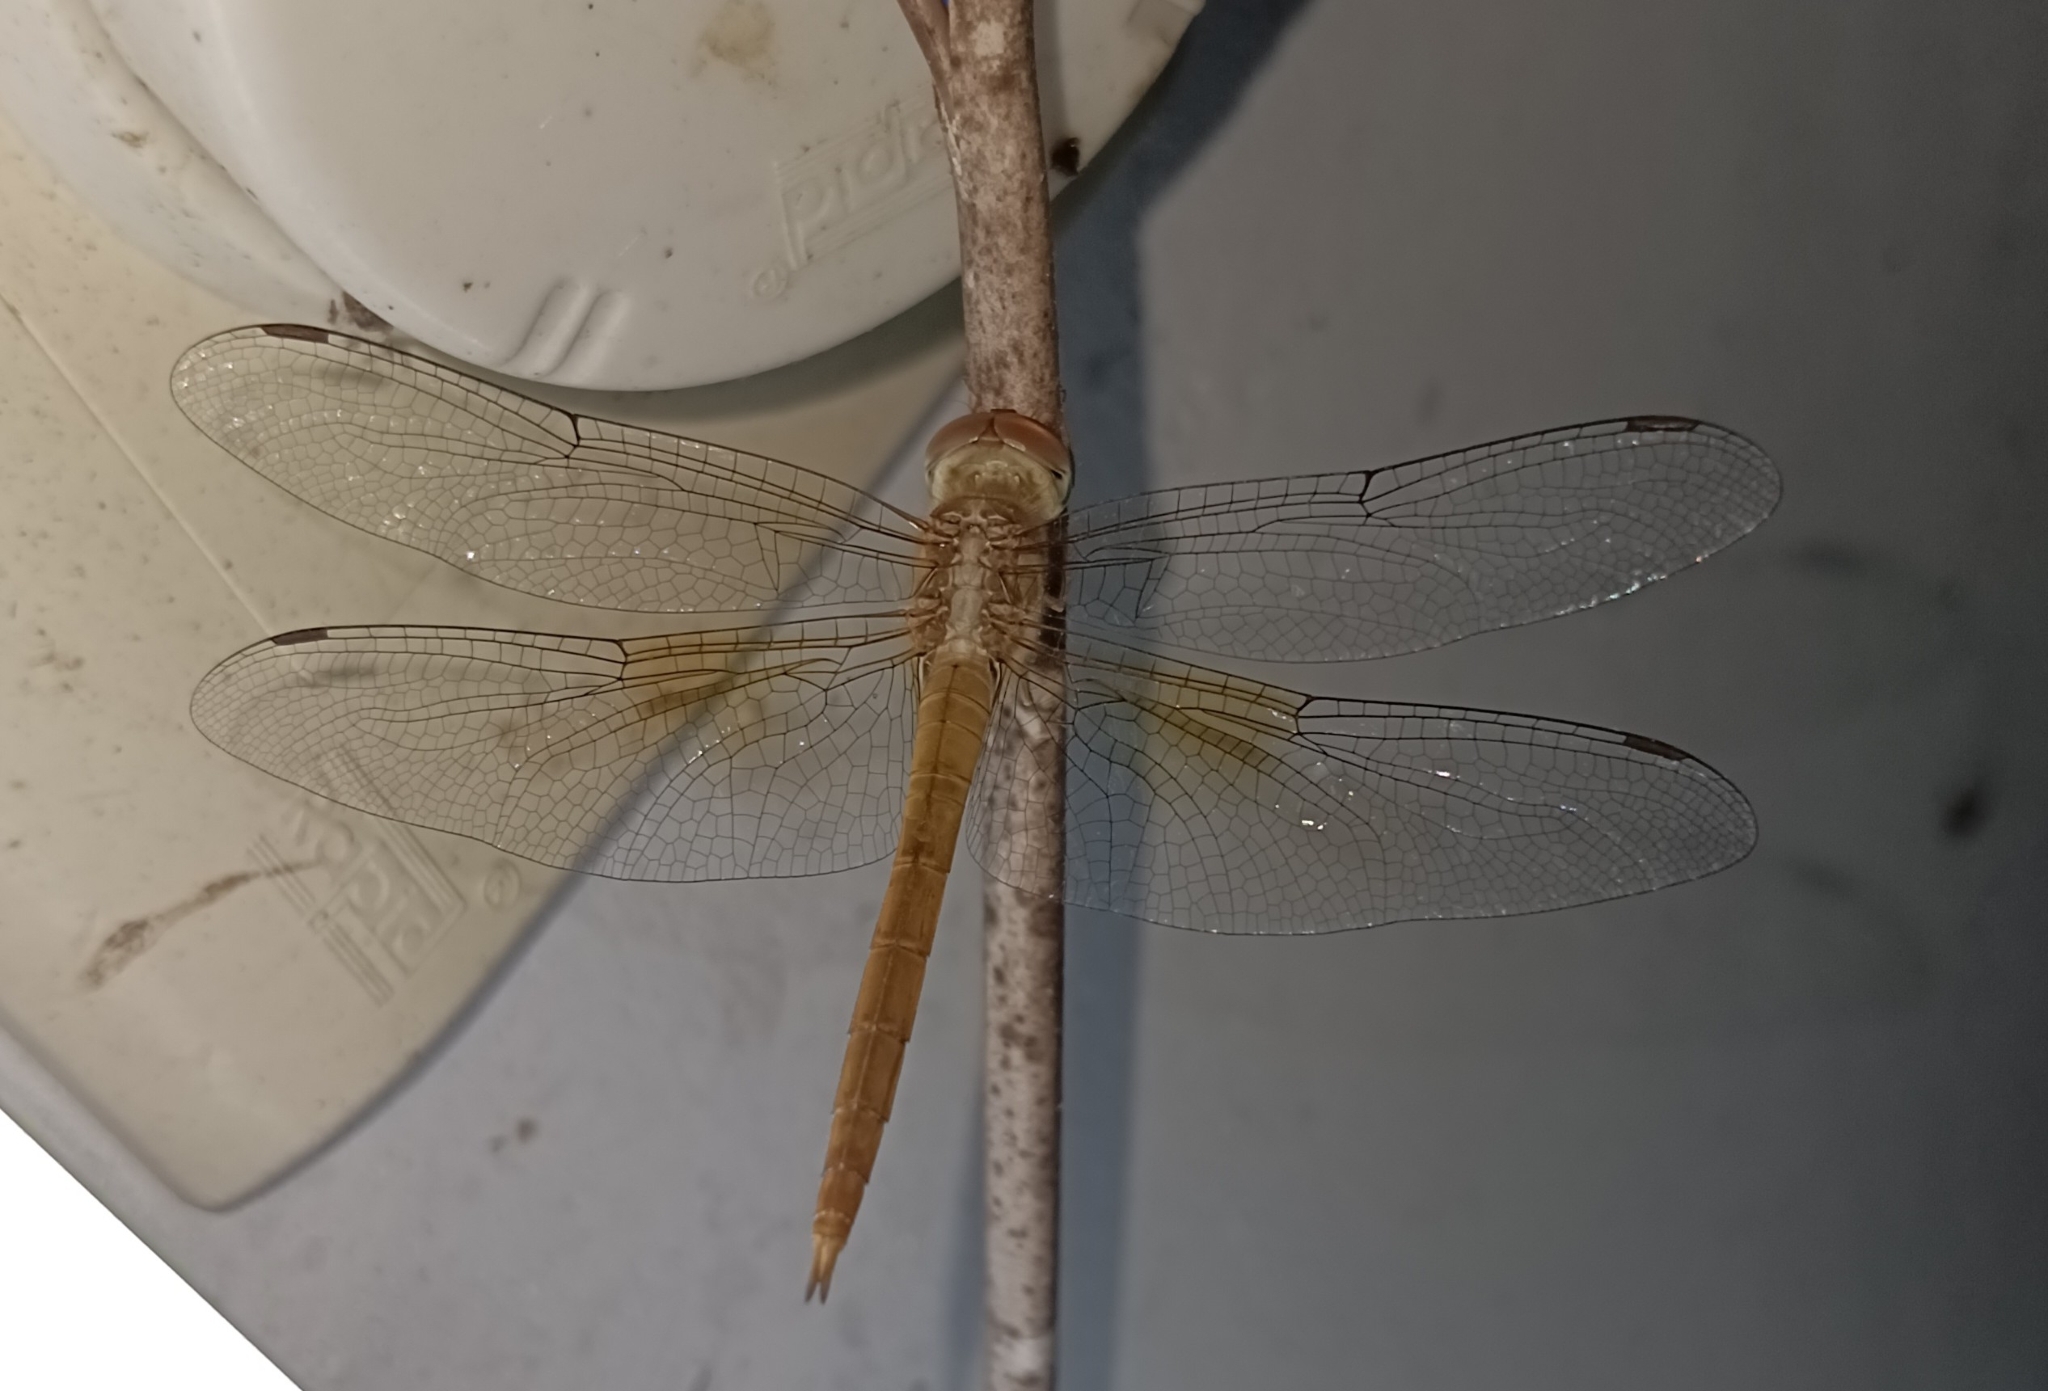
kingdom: Animalia
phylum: Arthropoda
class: Insecta
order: Odonata
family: Libellulidae
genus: Tholymis
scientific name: Tholymis tillarga
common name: Coral-tailed cloud wing
